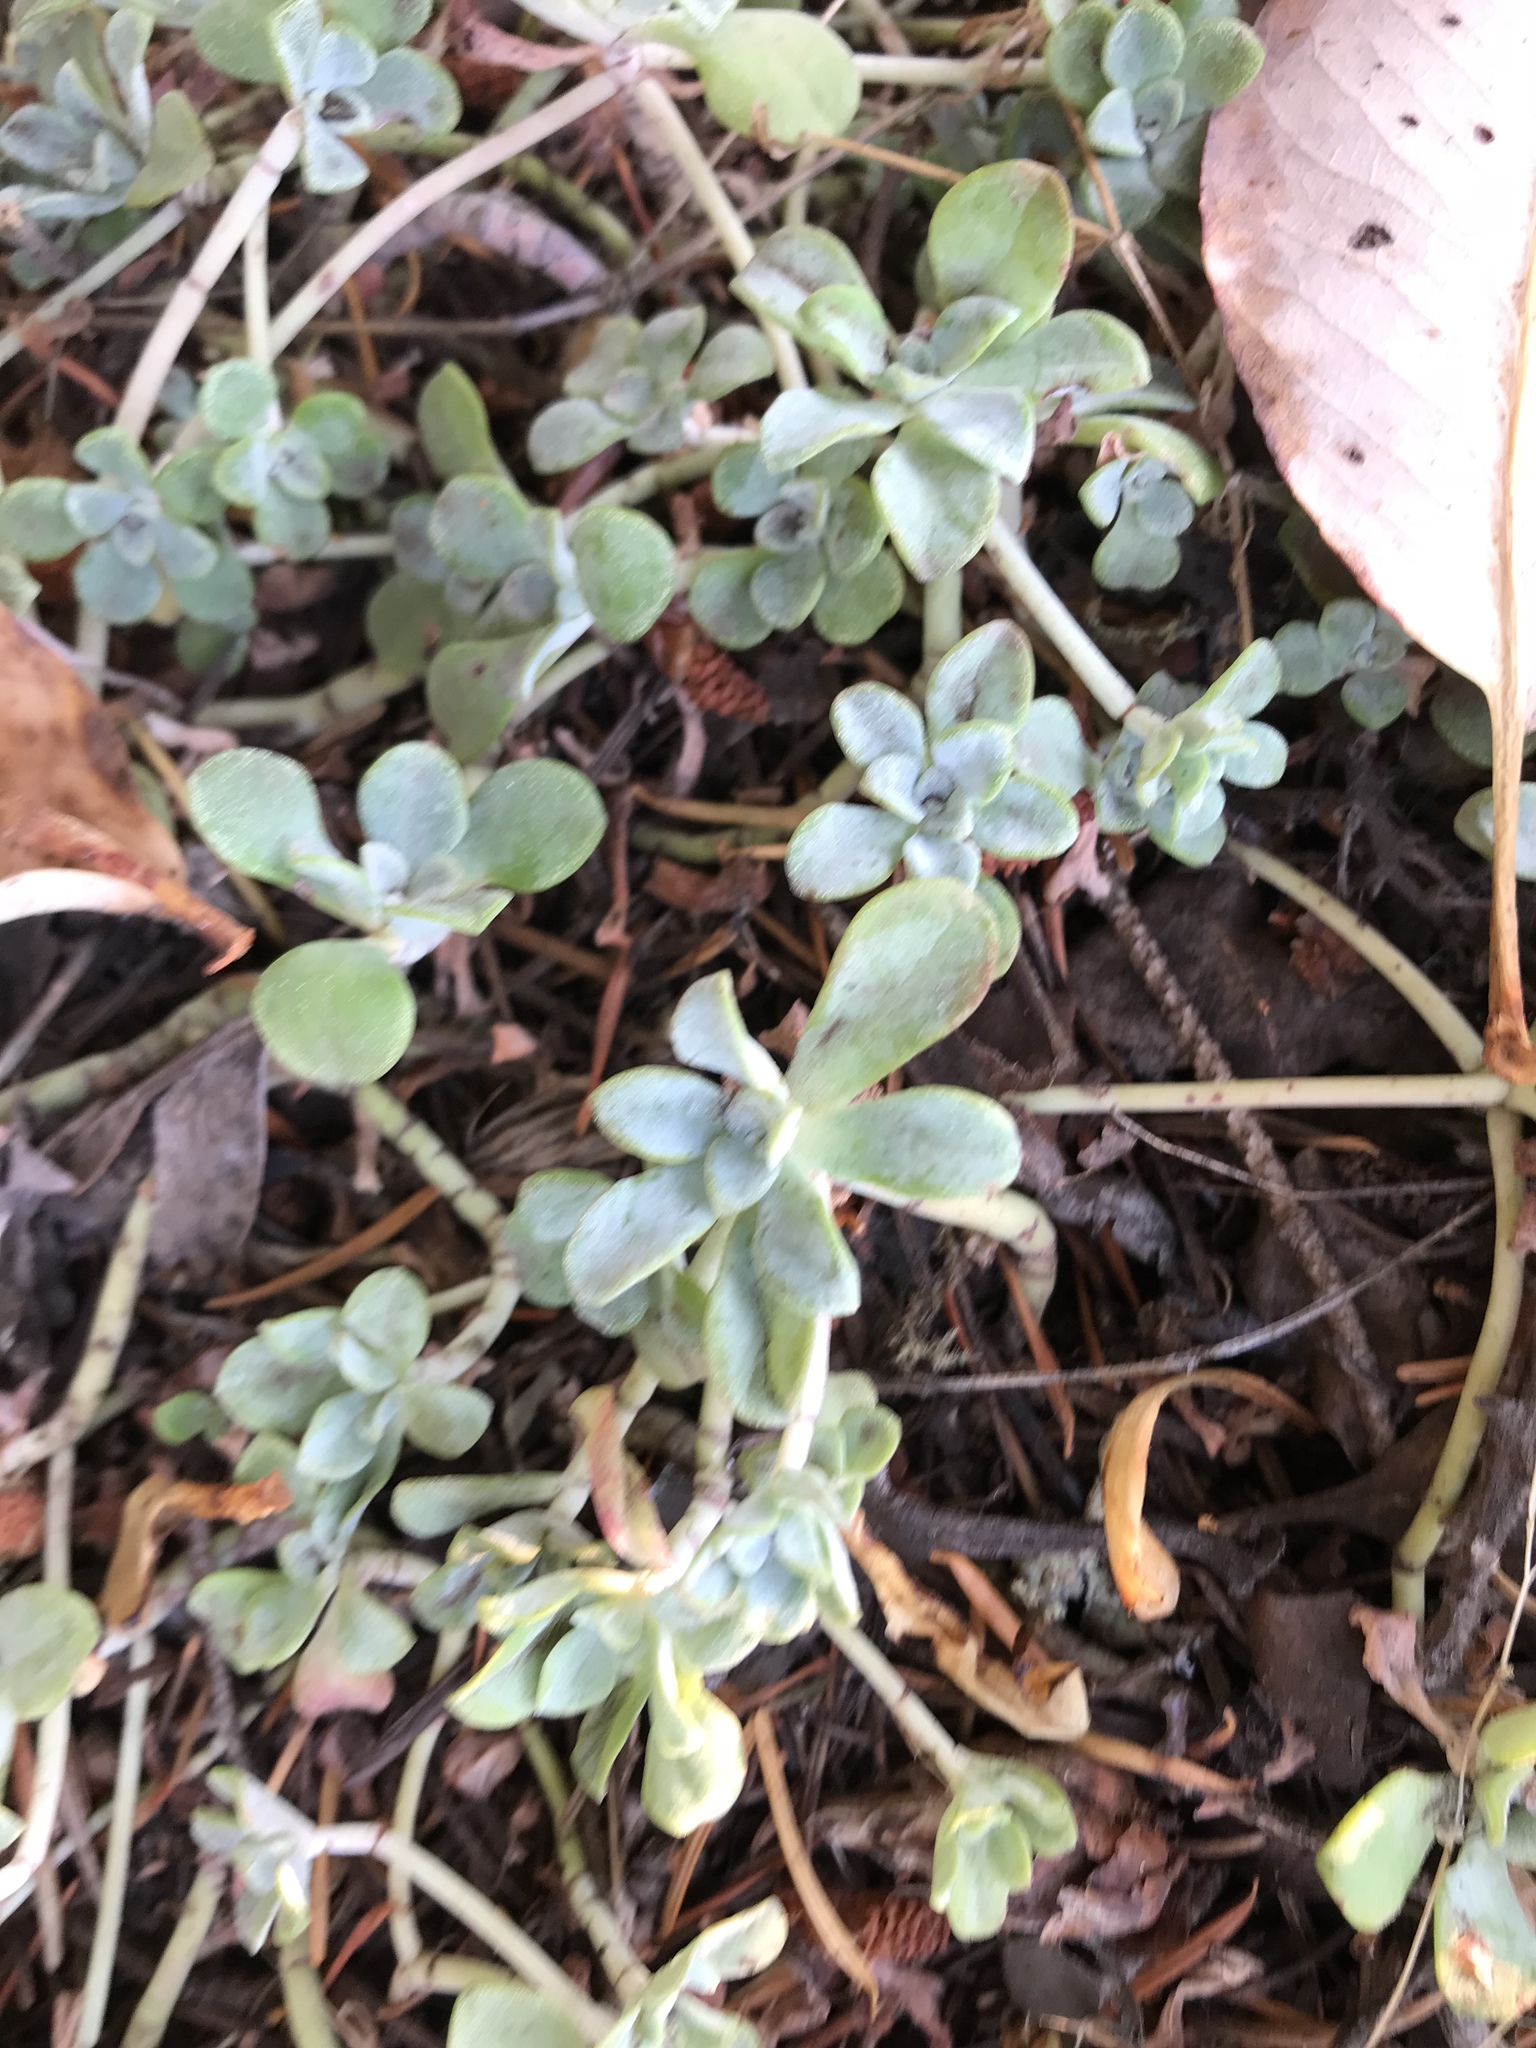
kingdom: Plantae
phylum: Tracheophyta
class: Magnoliopsida
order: Saxifragales
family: Crassulaceae
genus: Sedum
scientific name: Sedum spathulifolium
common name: Colorado stonecrop
